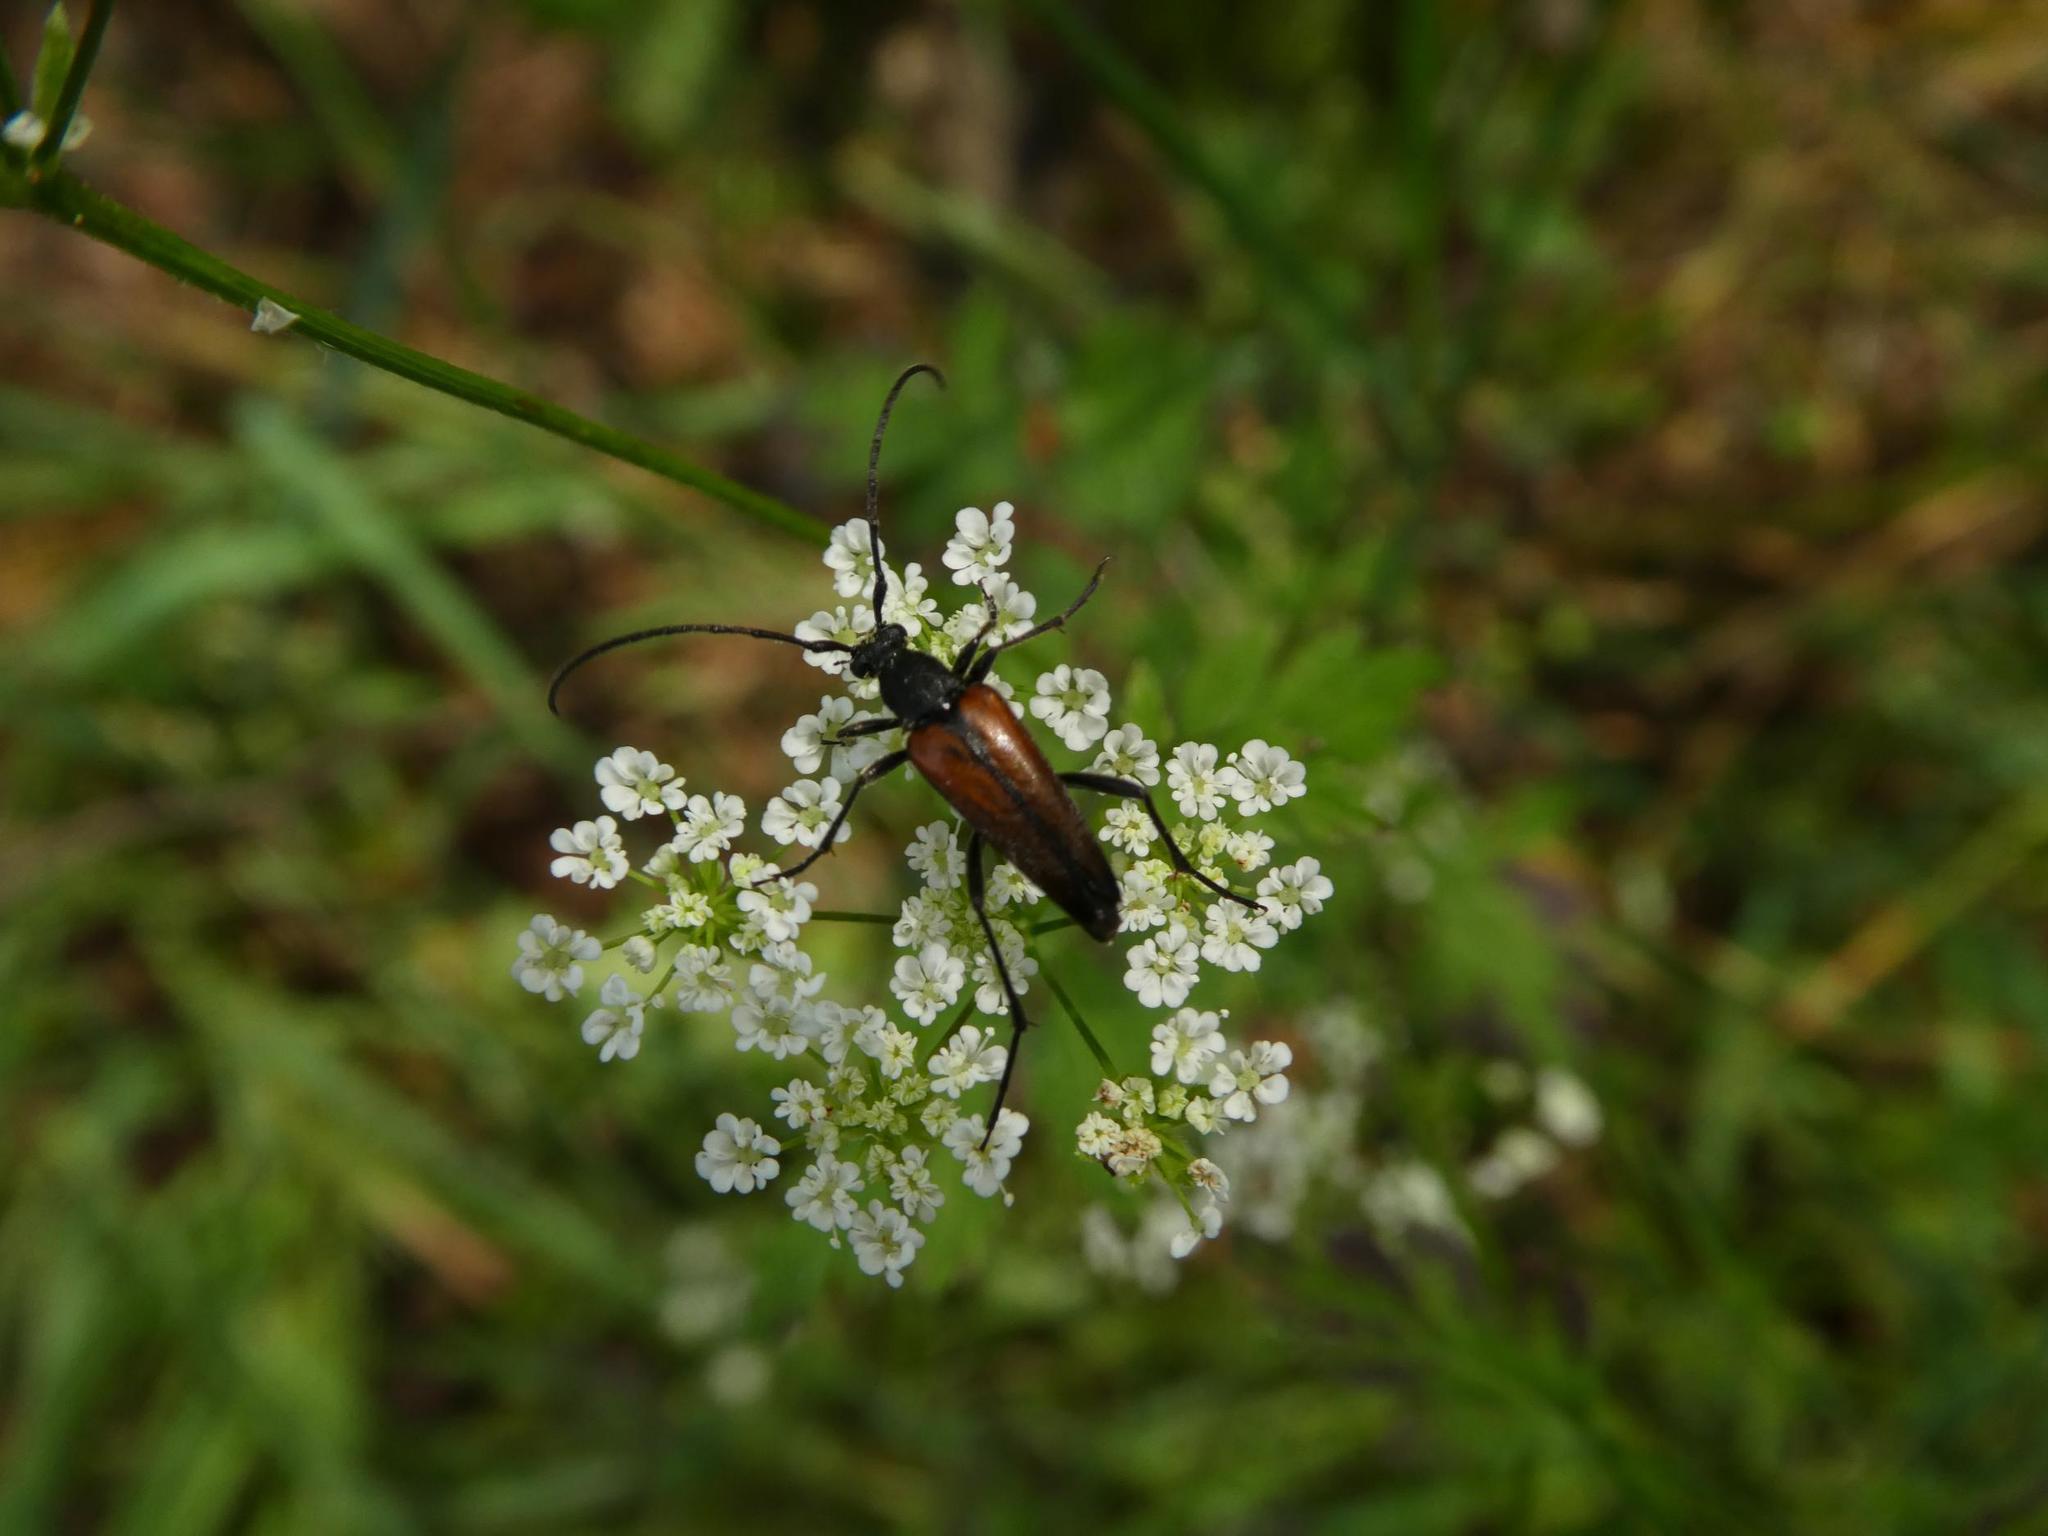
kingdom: Animalia
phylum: Arthropoda
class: Insecta
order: Coleoptera
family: Cerambycidae
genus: Stenurella
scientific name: Stenurella melanura
